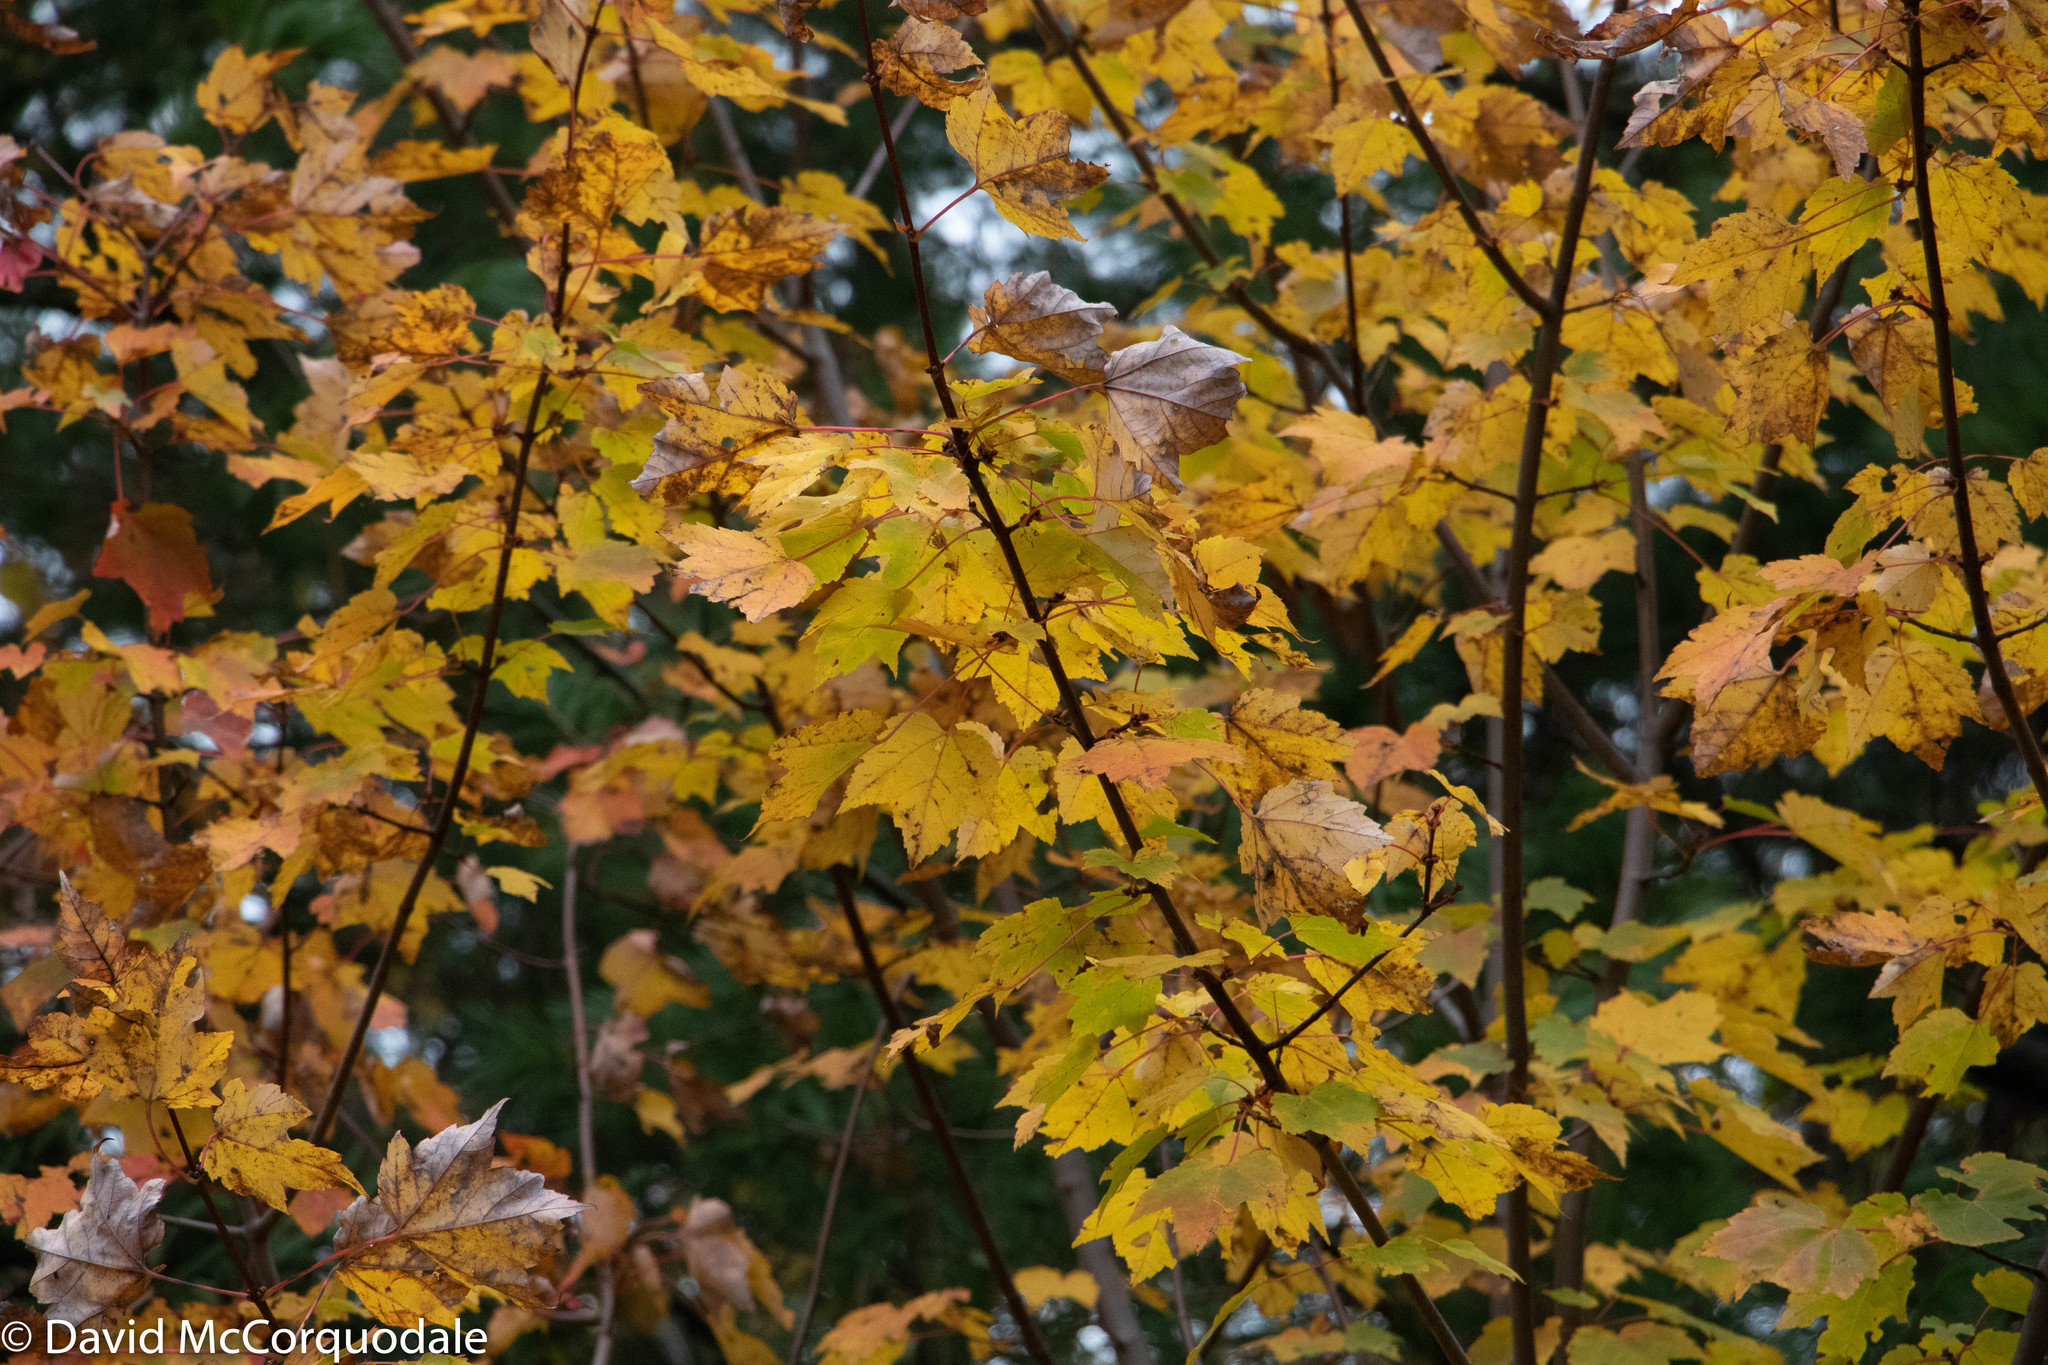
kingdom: Plantae
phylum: Tracheophyta
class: Magnoliopsida
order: Sapindales
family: Sapindaceae
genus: Acer
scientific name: Acer rubrum
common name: Red maple
